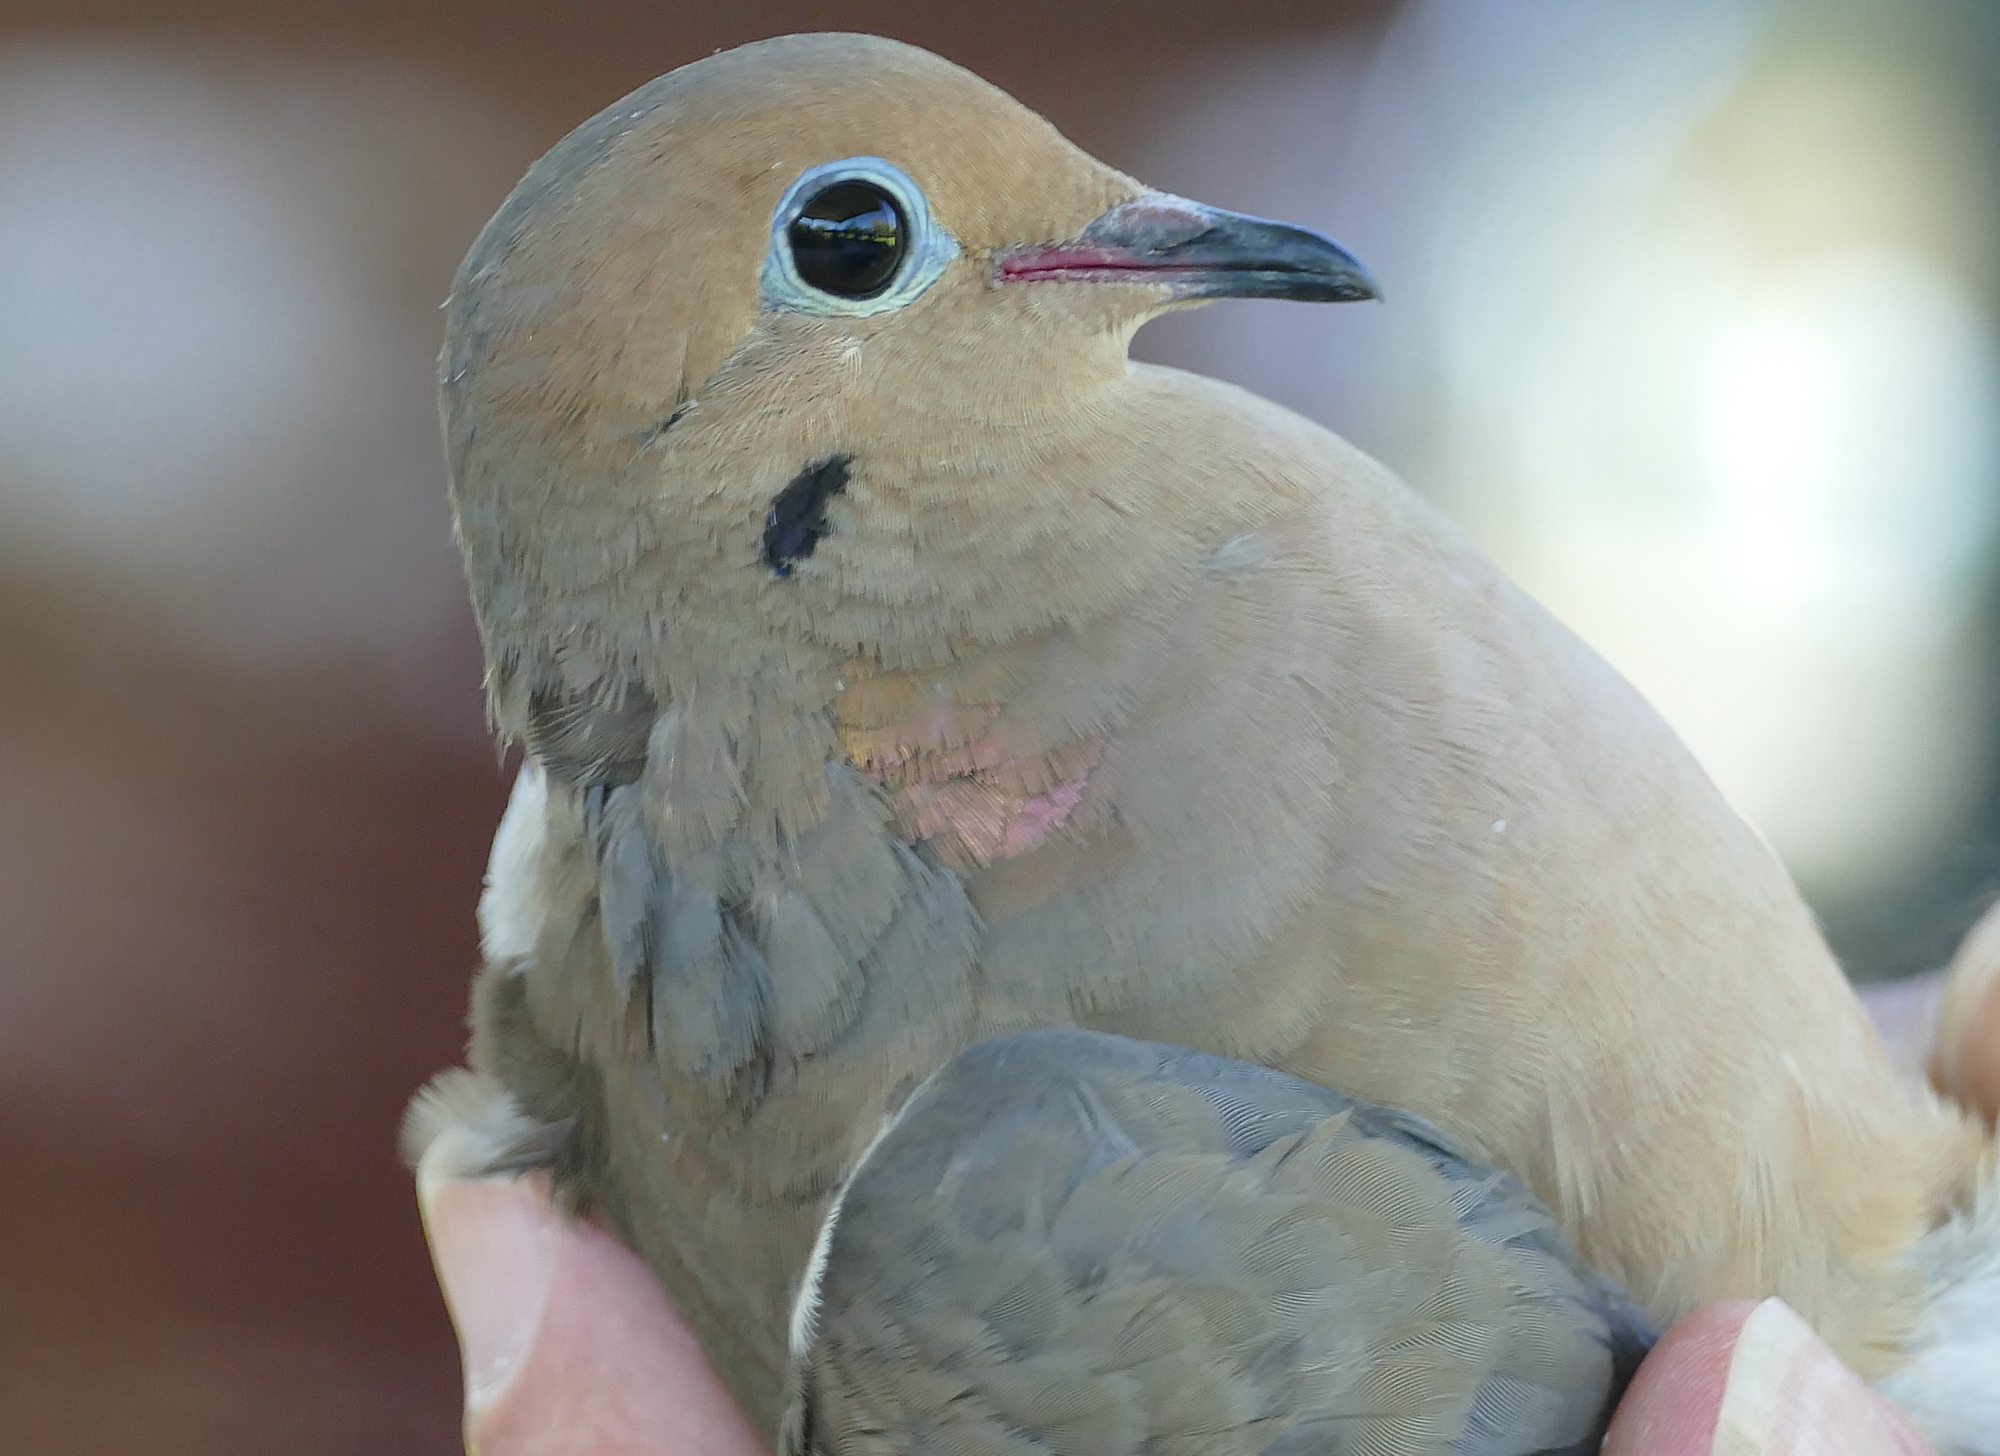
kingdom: Animalia
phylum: Chordata
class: Aves
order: Columbiformes
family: Columbidae
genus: Zenaida
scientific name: Zenaida macroura
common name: Mourning dove
